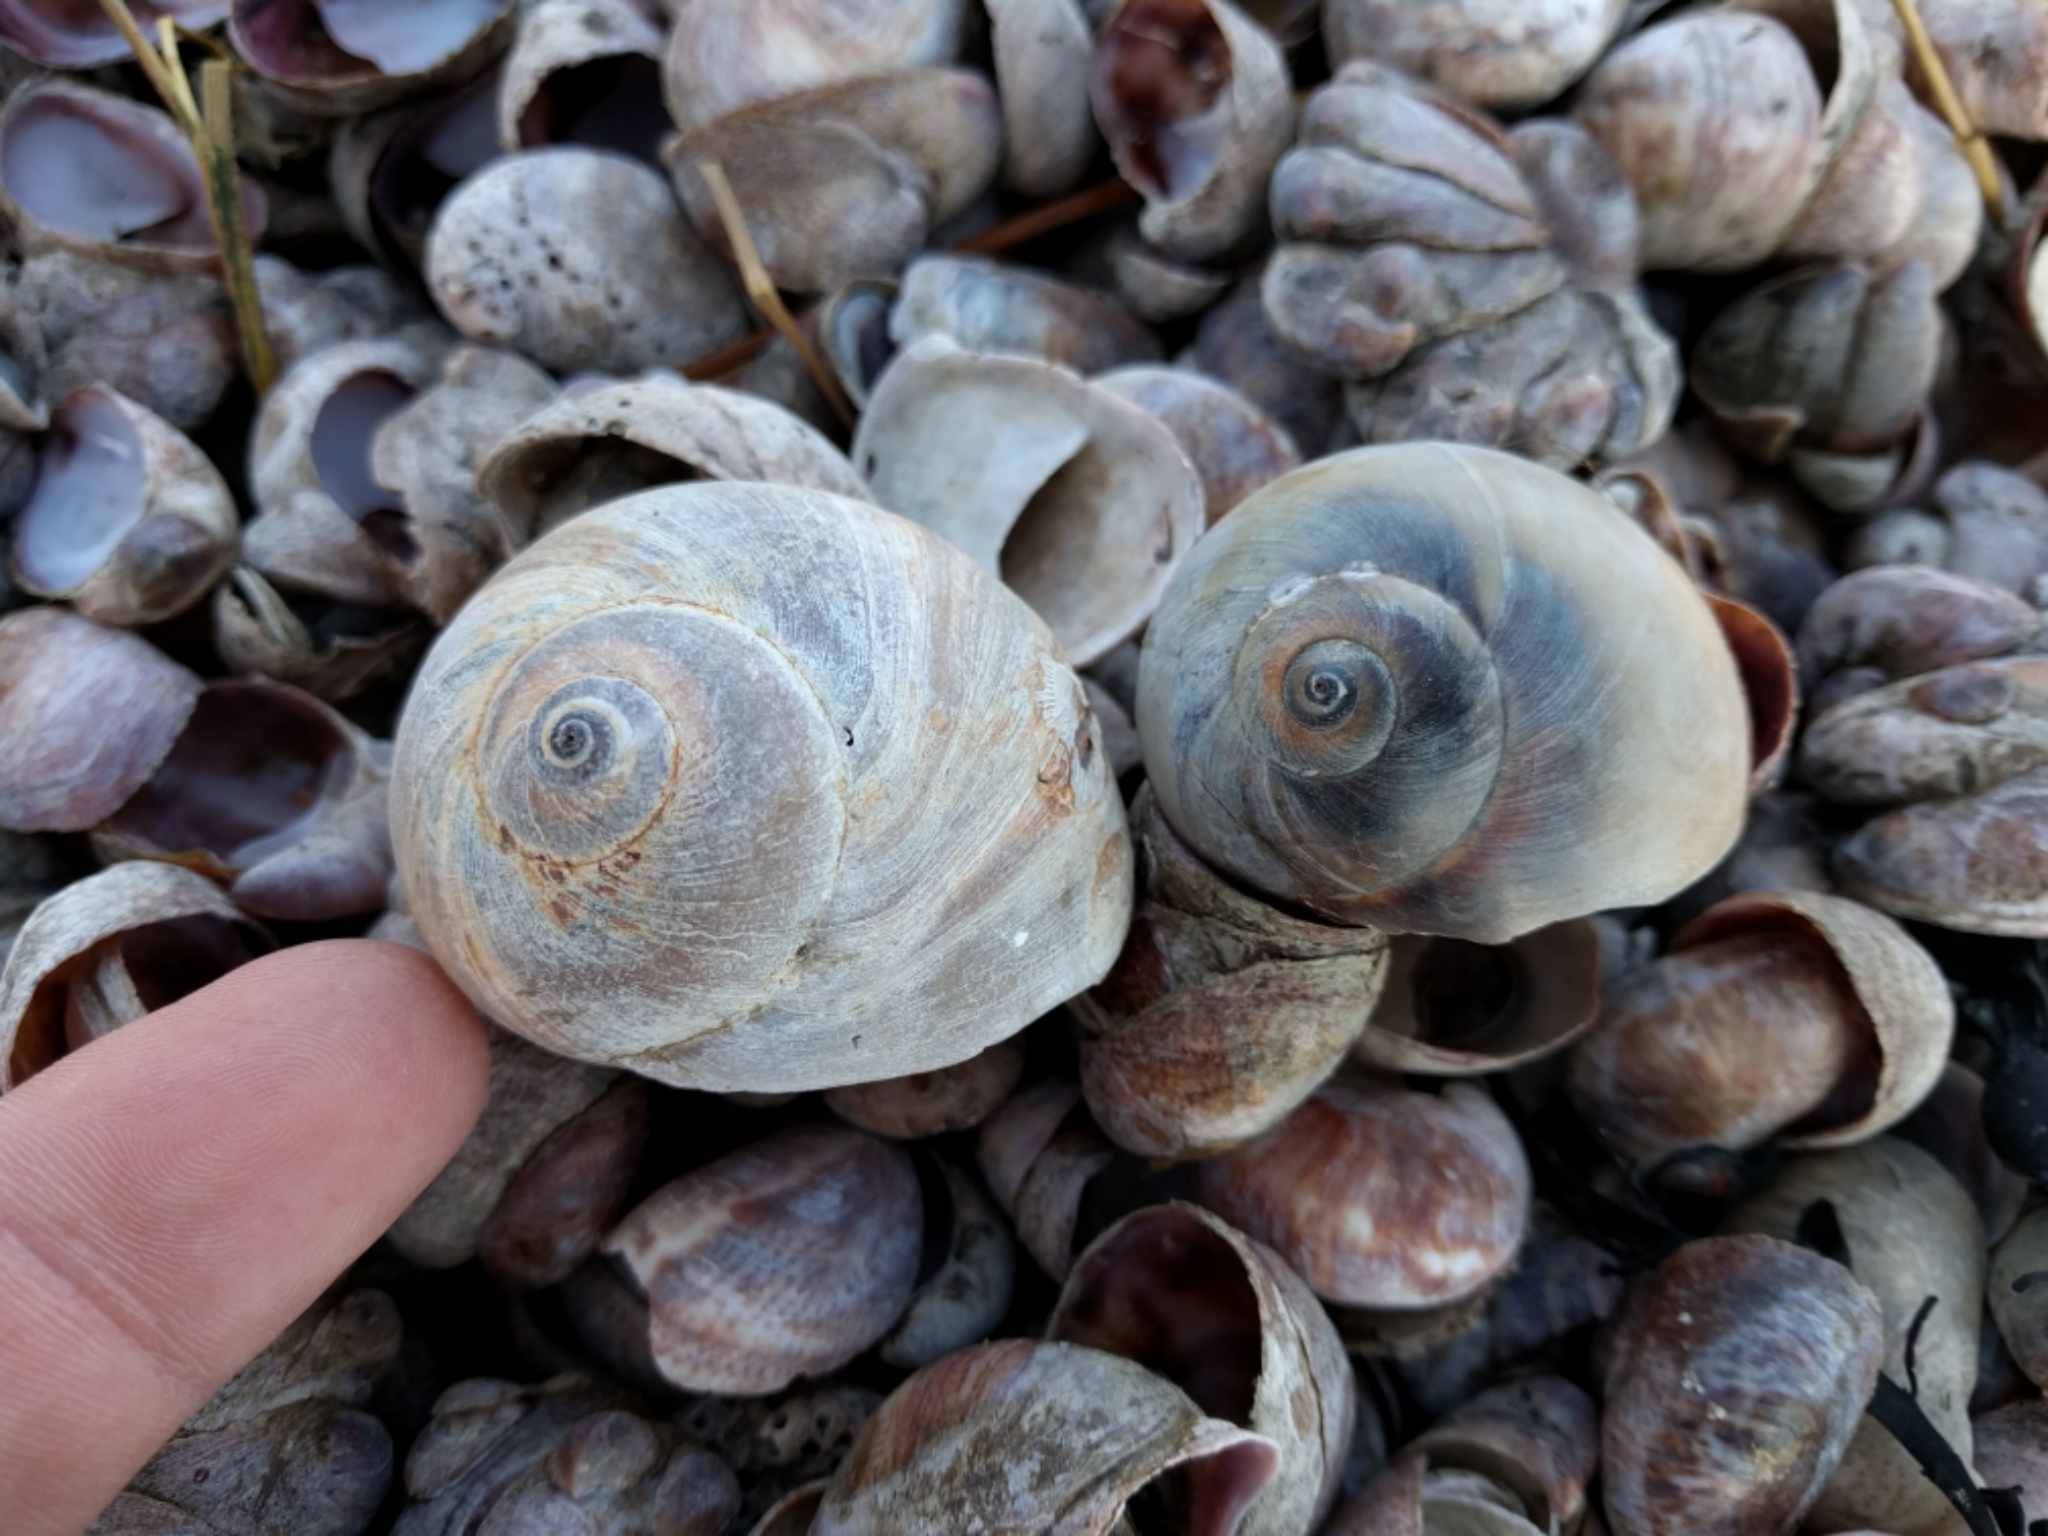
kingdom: Animalia
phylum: Mollusca
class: Gastropoda
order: Littorinimorpha
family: Naticidae
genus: Neverita
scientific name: Neverita duplicata
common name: Lobed moonsnail
